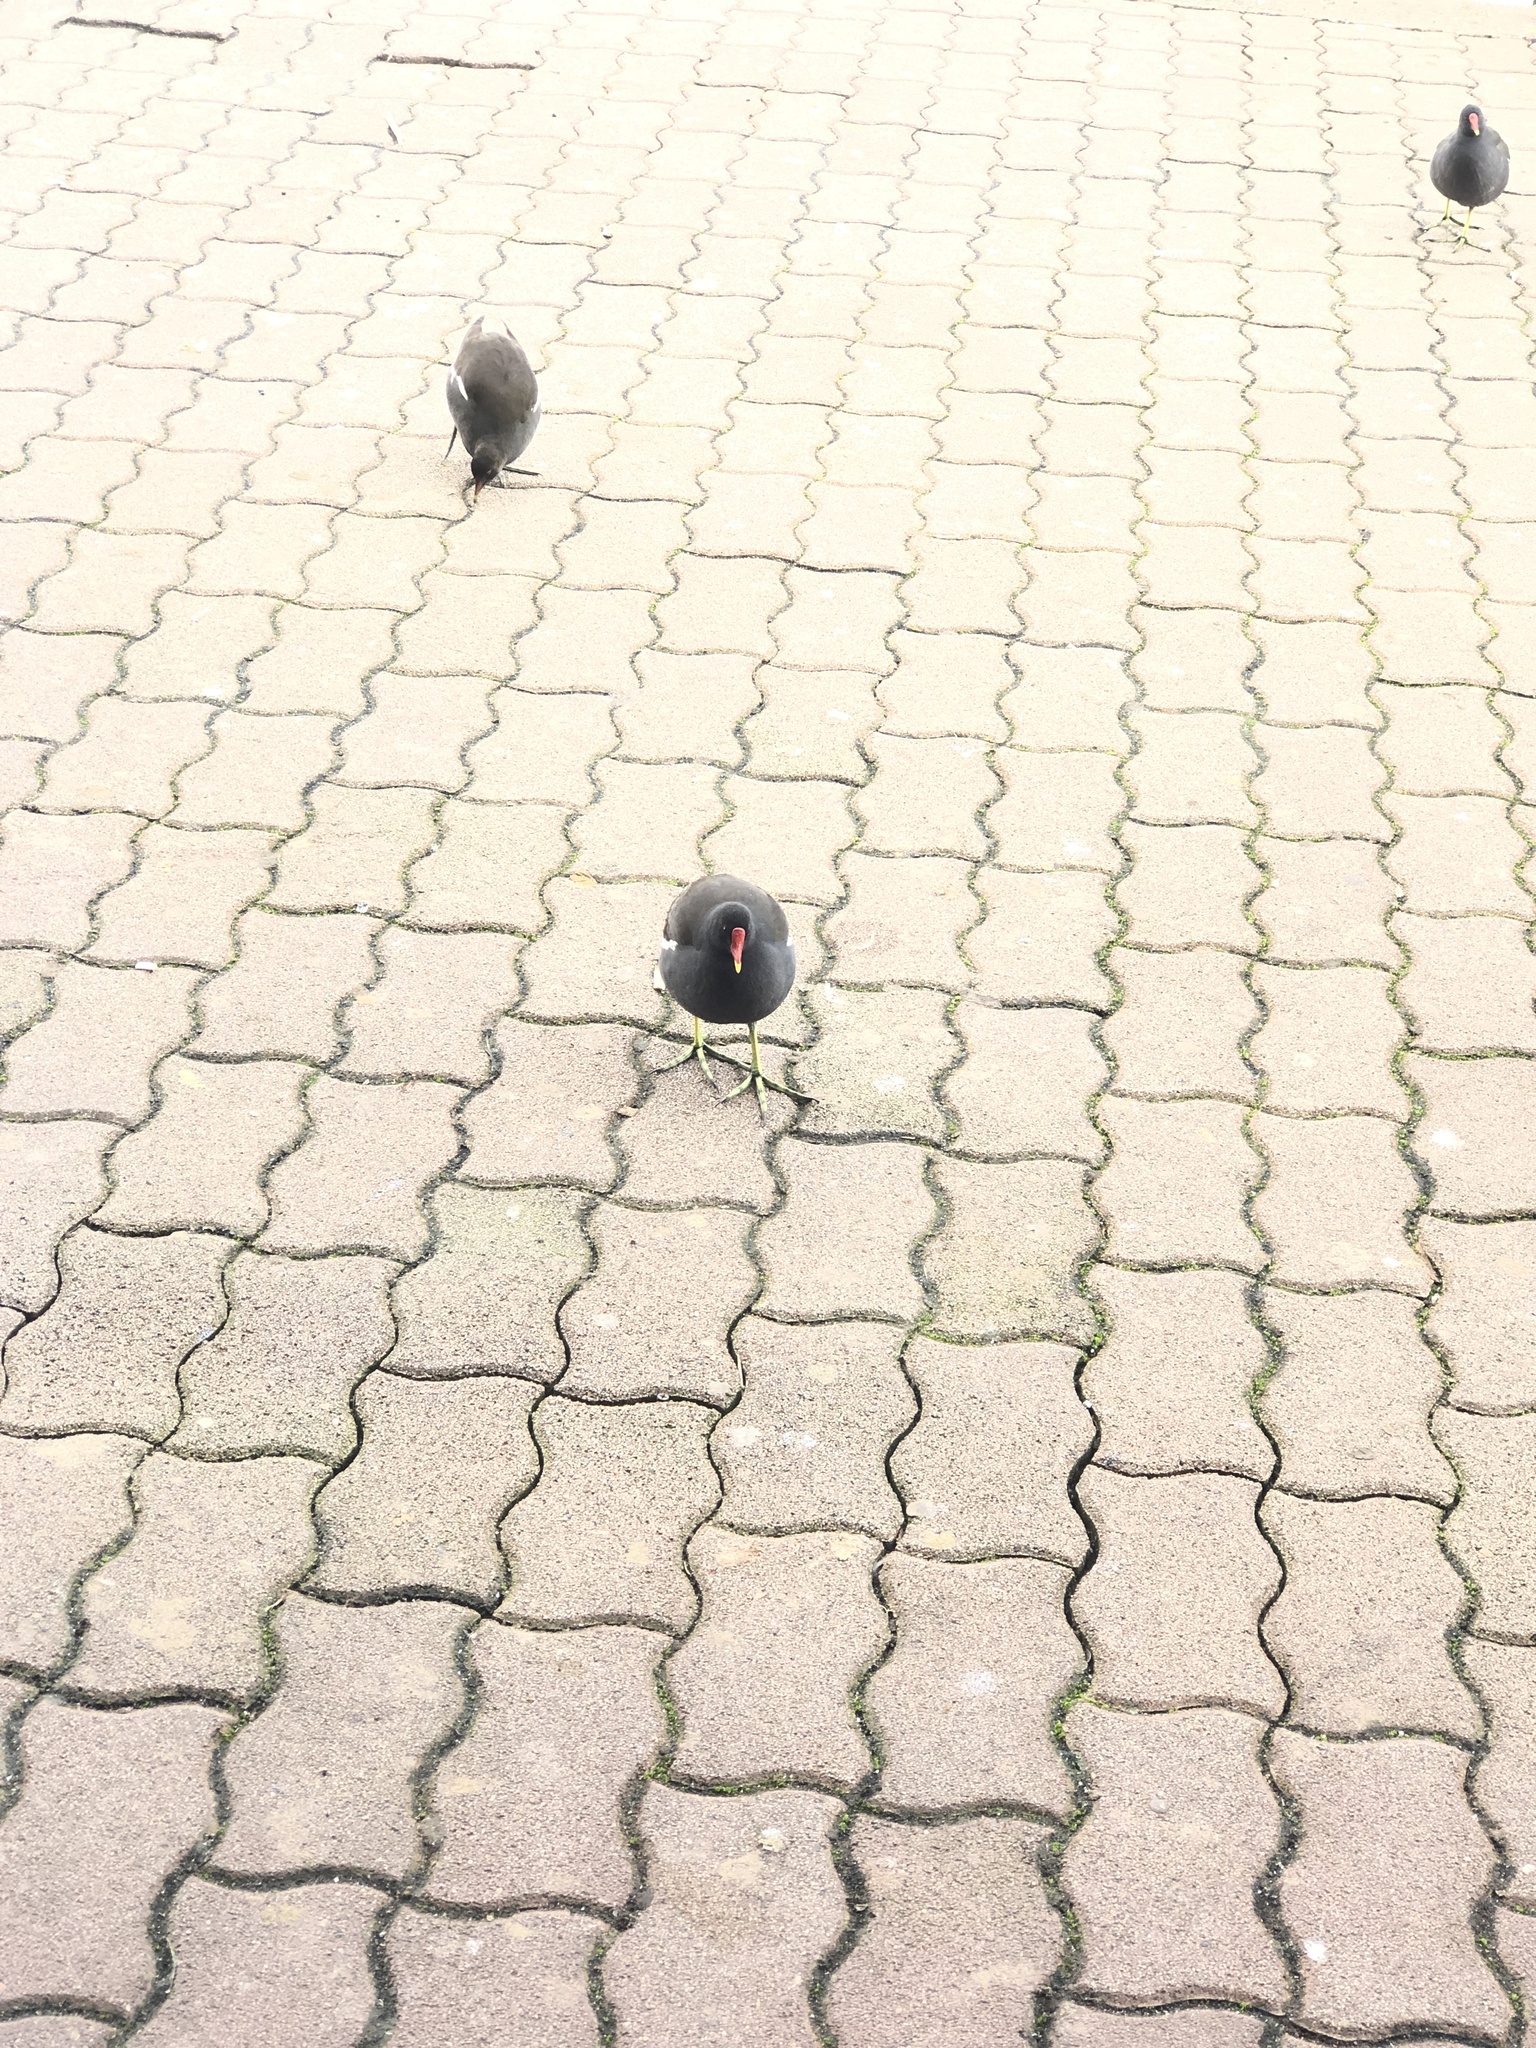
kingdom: Animalia
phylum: Chordata
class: Aves
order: Gruiformes
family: Rallidae
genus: Gallinula
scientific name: Gallinula chloropus
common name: Common moorhen
